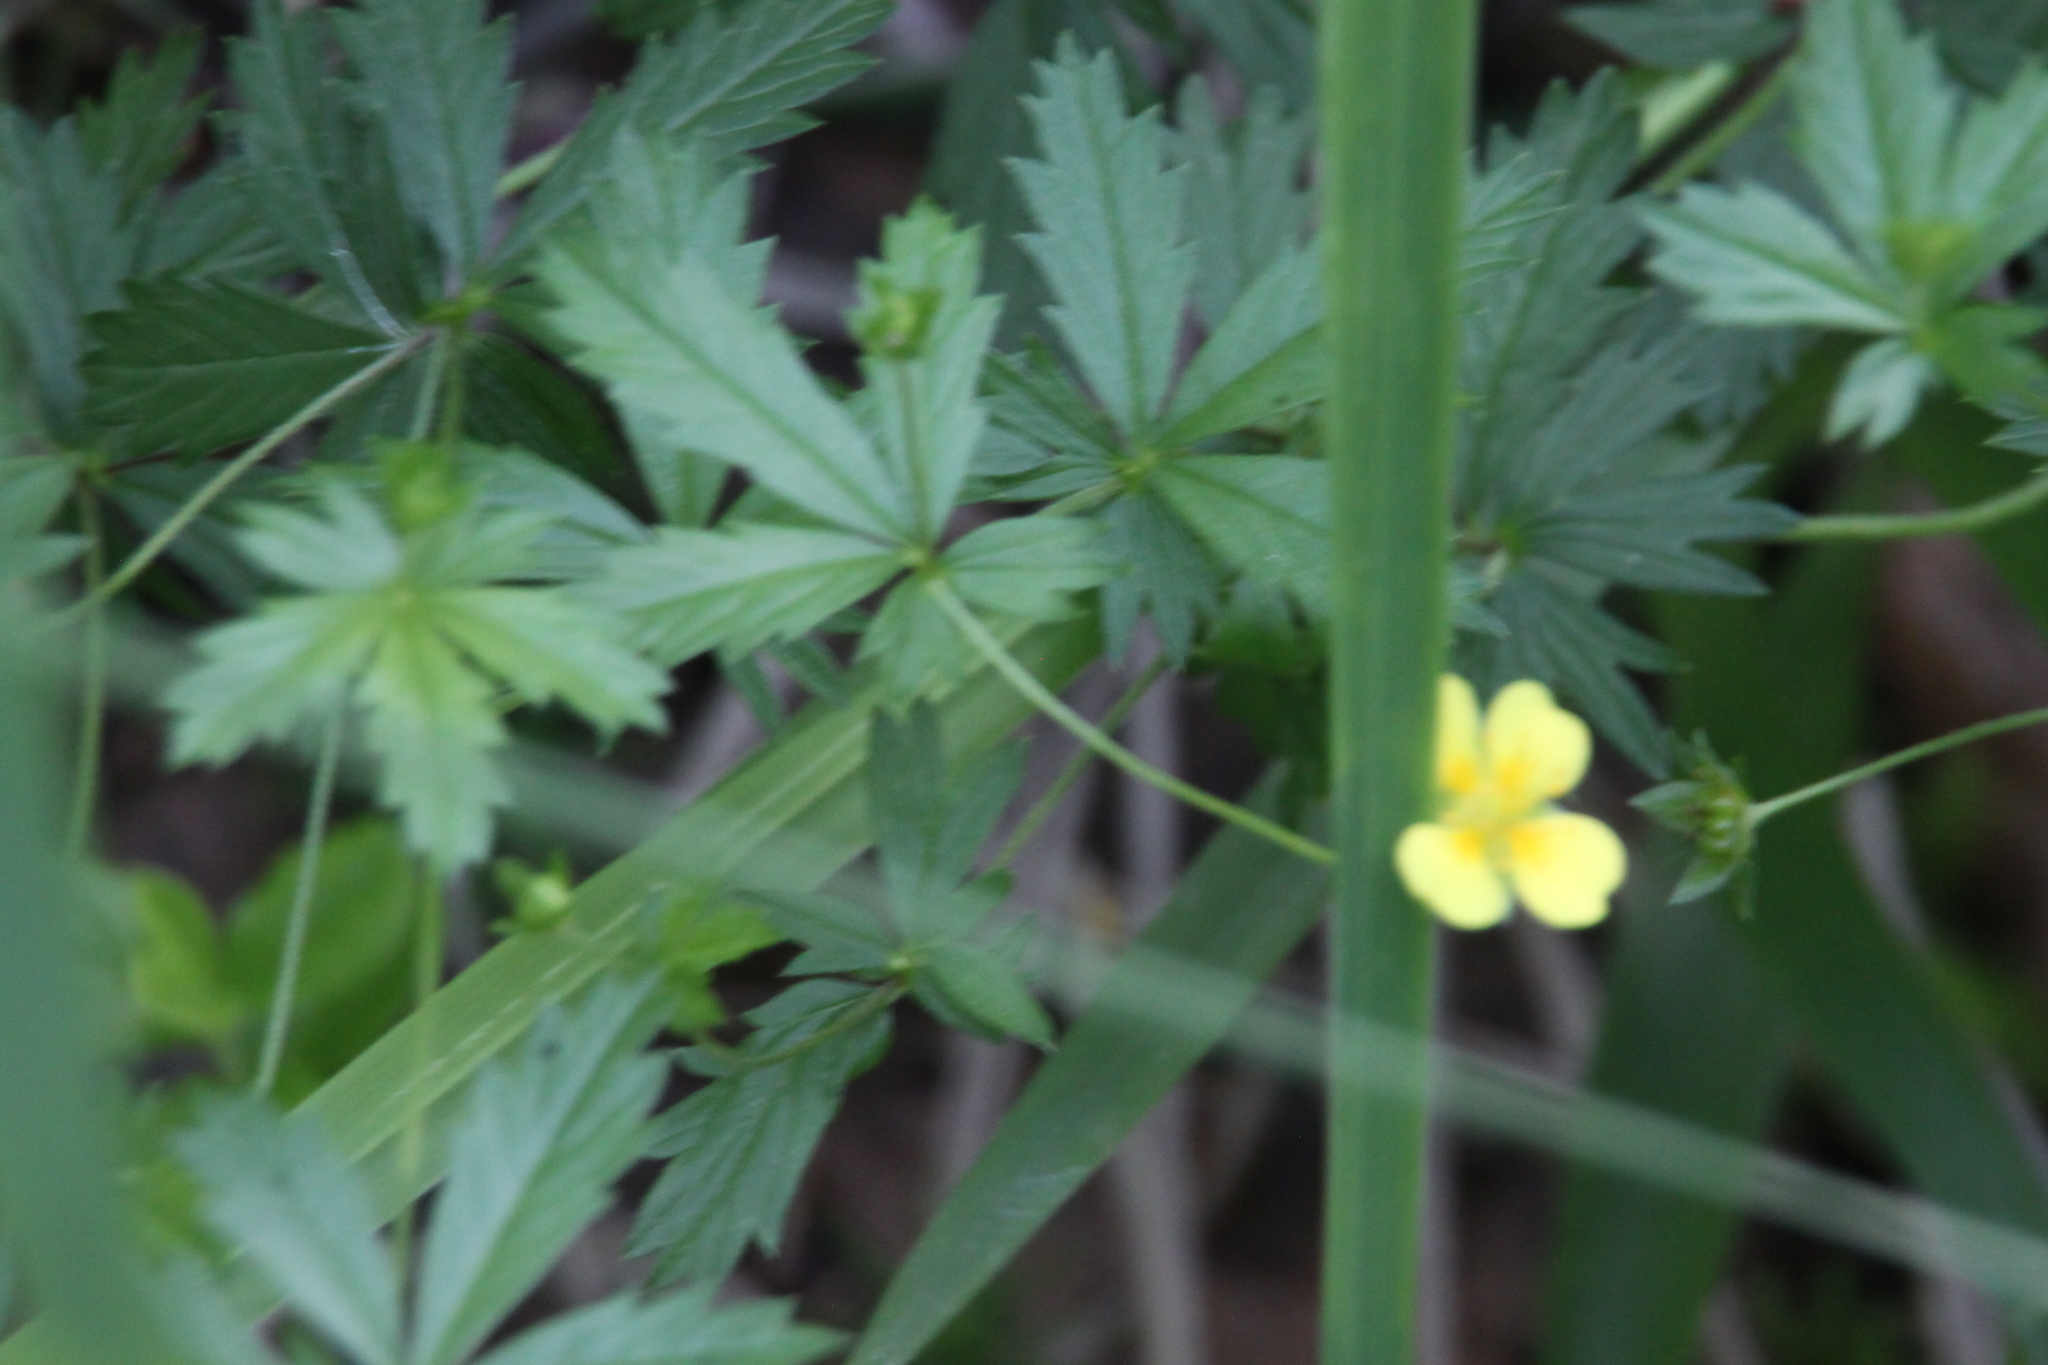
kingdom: Plantae
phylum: Tracheophyta
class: Magnoliopsida
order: Rosales
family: Rosaceae
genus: Potentilla
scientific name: Potentilla erecta
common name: Tormentil
